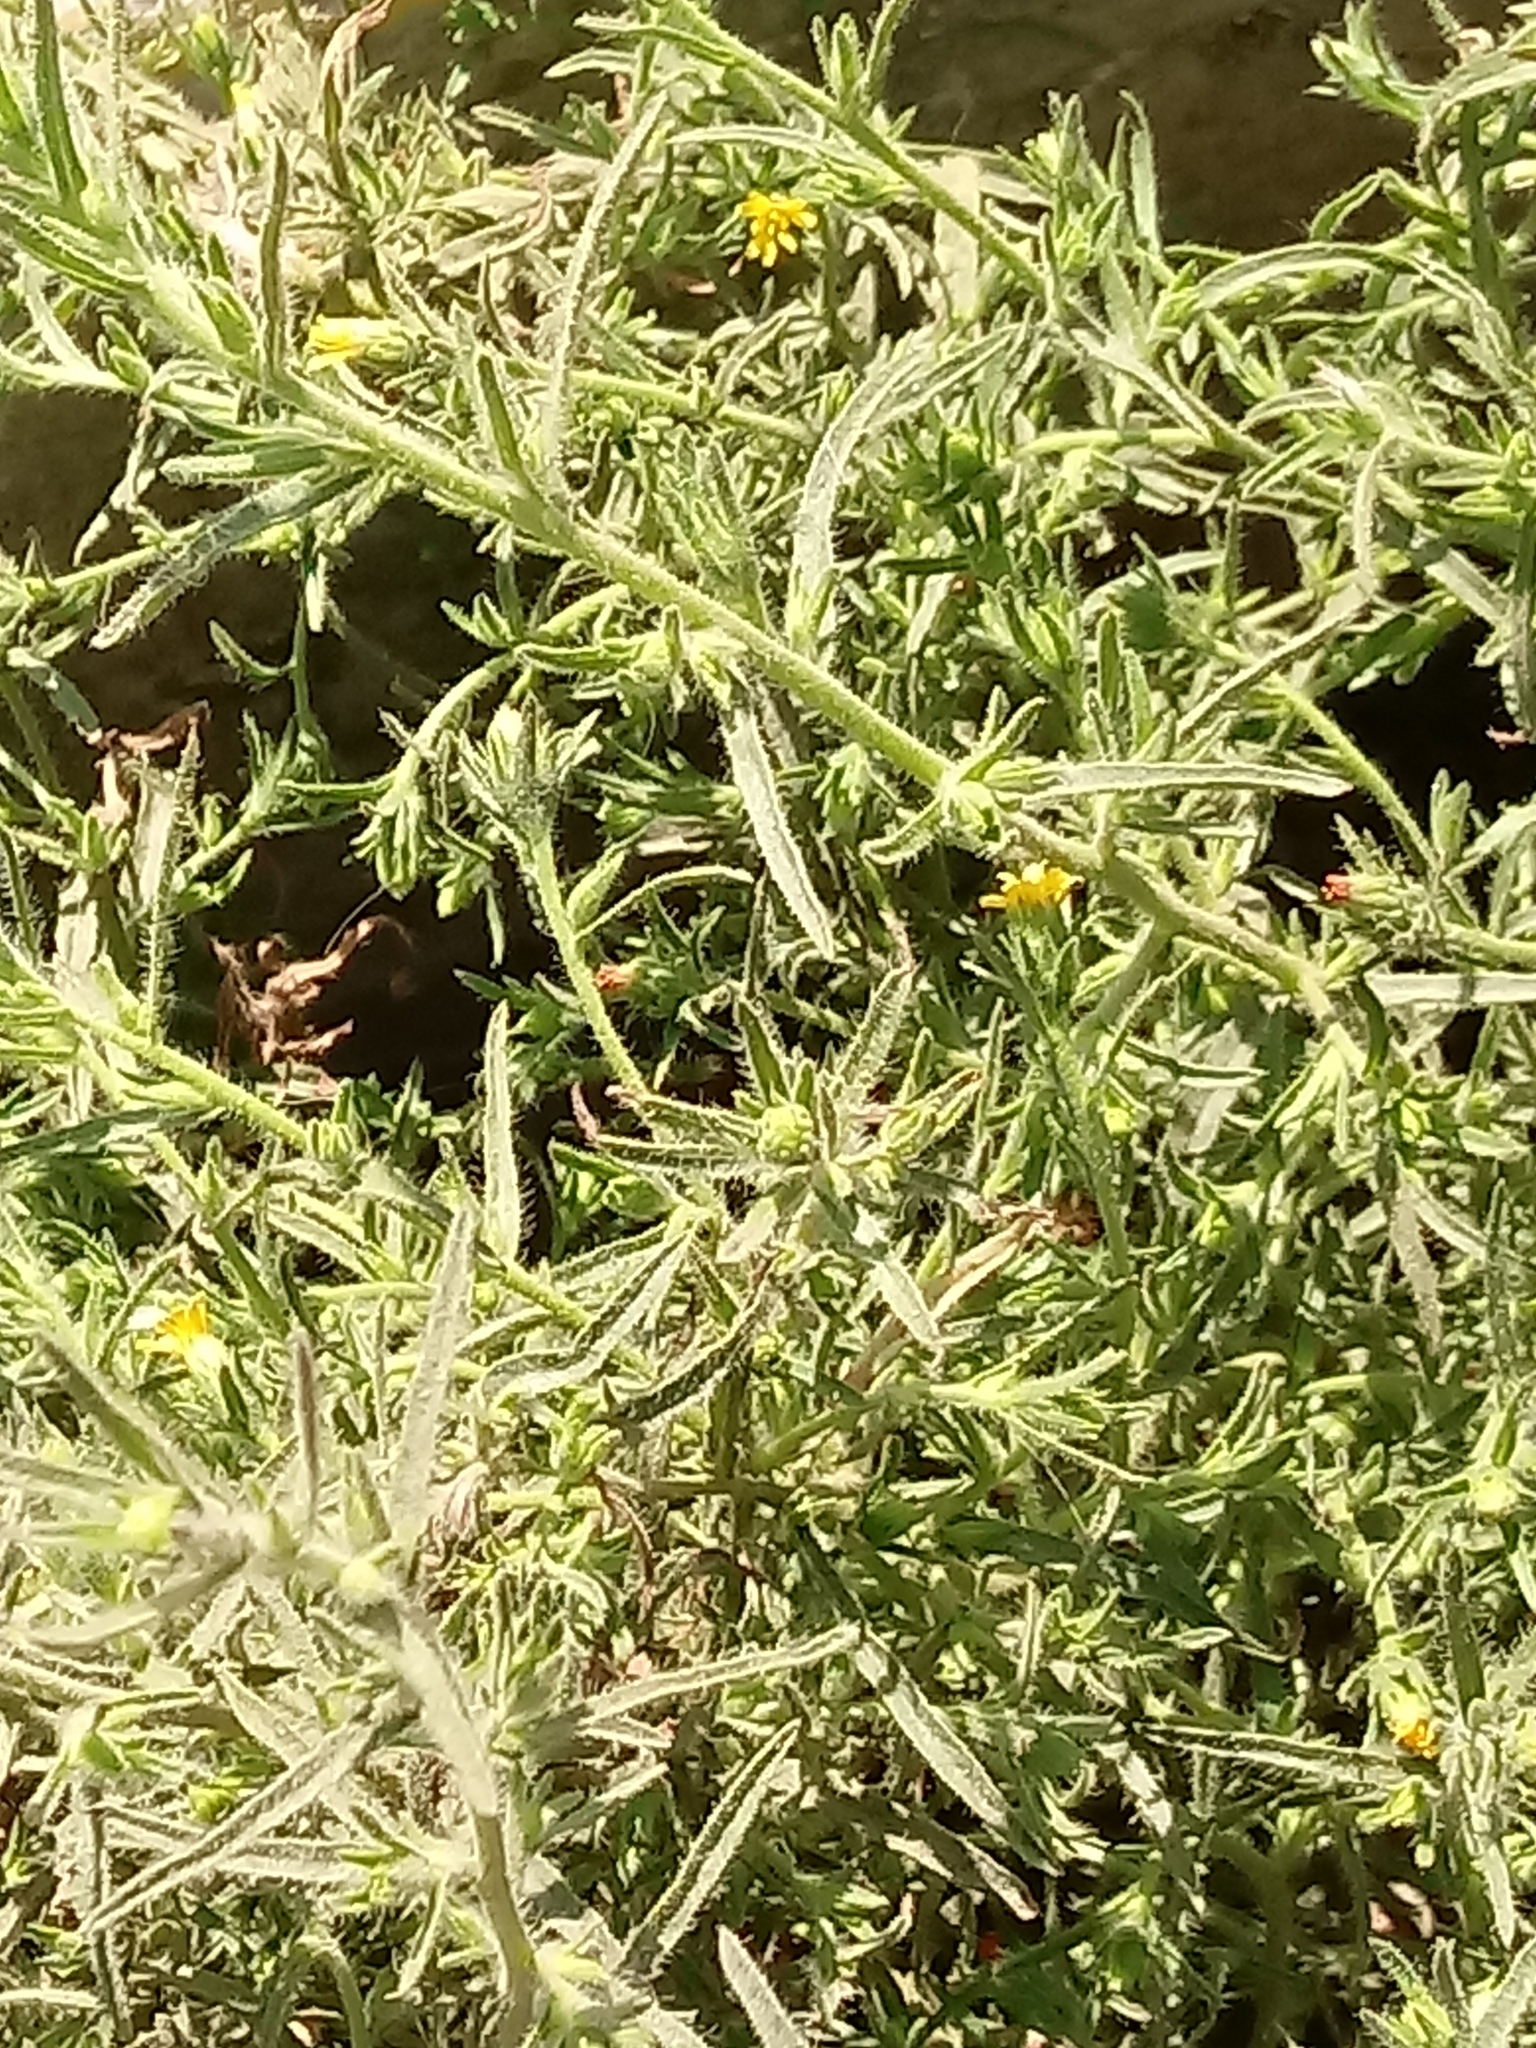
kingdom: Plantae
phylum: Tracheophyta
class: Magnoliopsida
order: Asterales
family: Asteraceae
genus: Dittrichia
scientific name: Dittrichia graveolens
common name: Stinking fleabane
